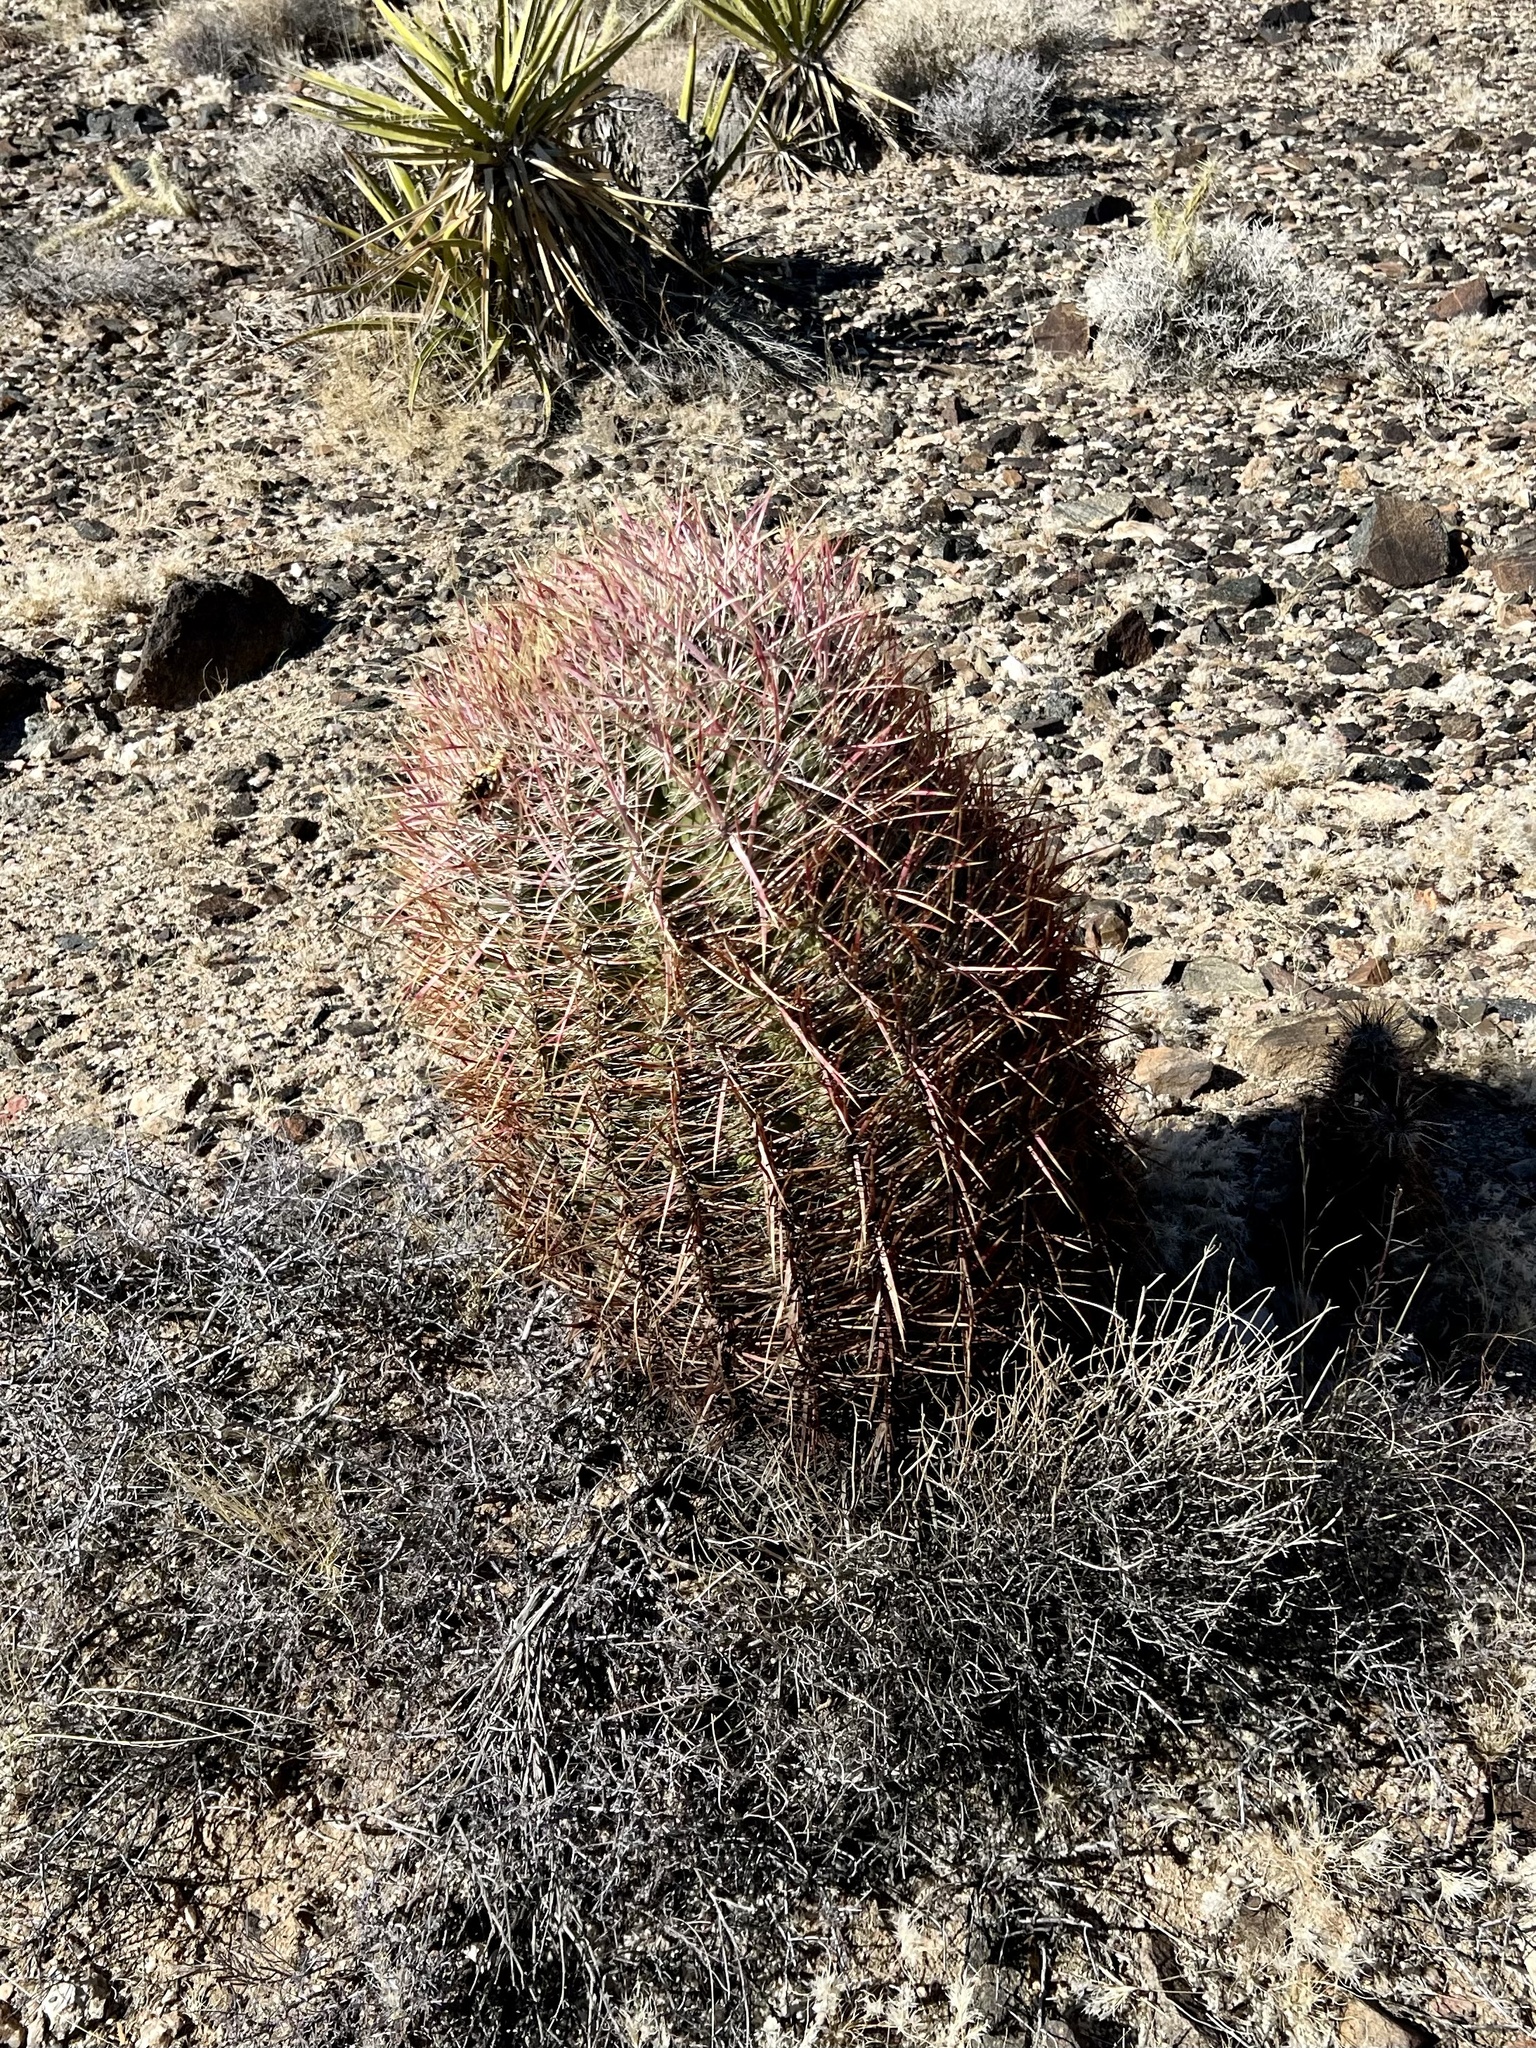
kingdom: Plantae
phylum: Tracheophyta
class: Magnoliopsida
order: Caryophyllales
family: Cactaceae
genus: Ferocactus
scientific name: Ferocactus cylindraceus
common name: California barrel cactus
